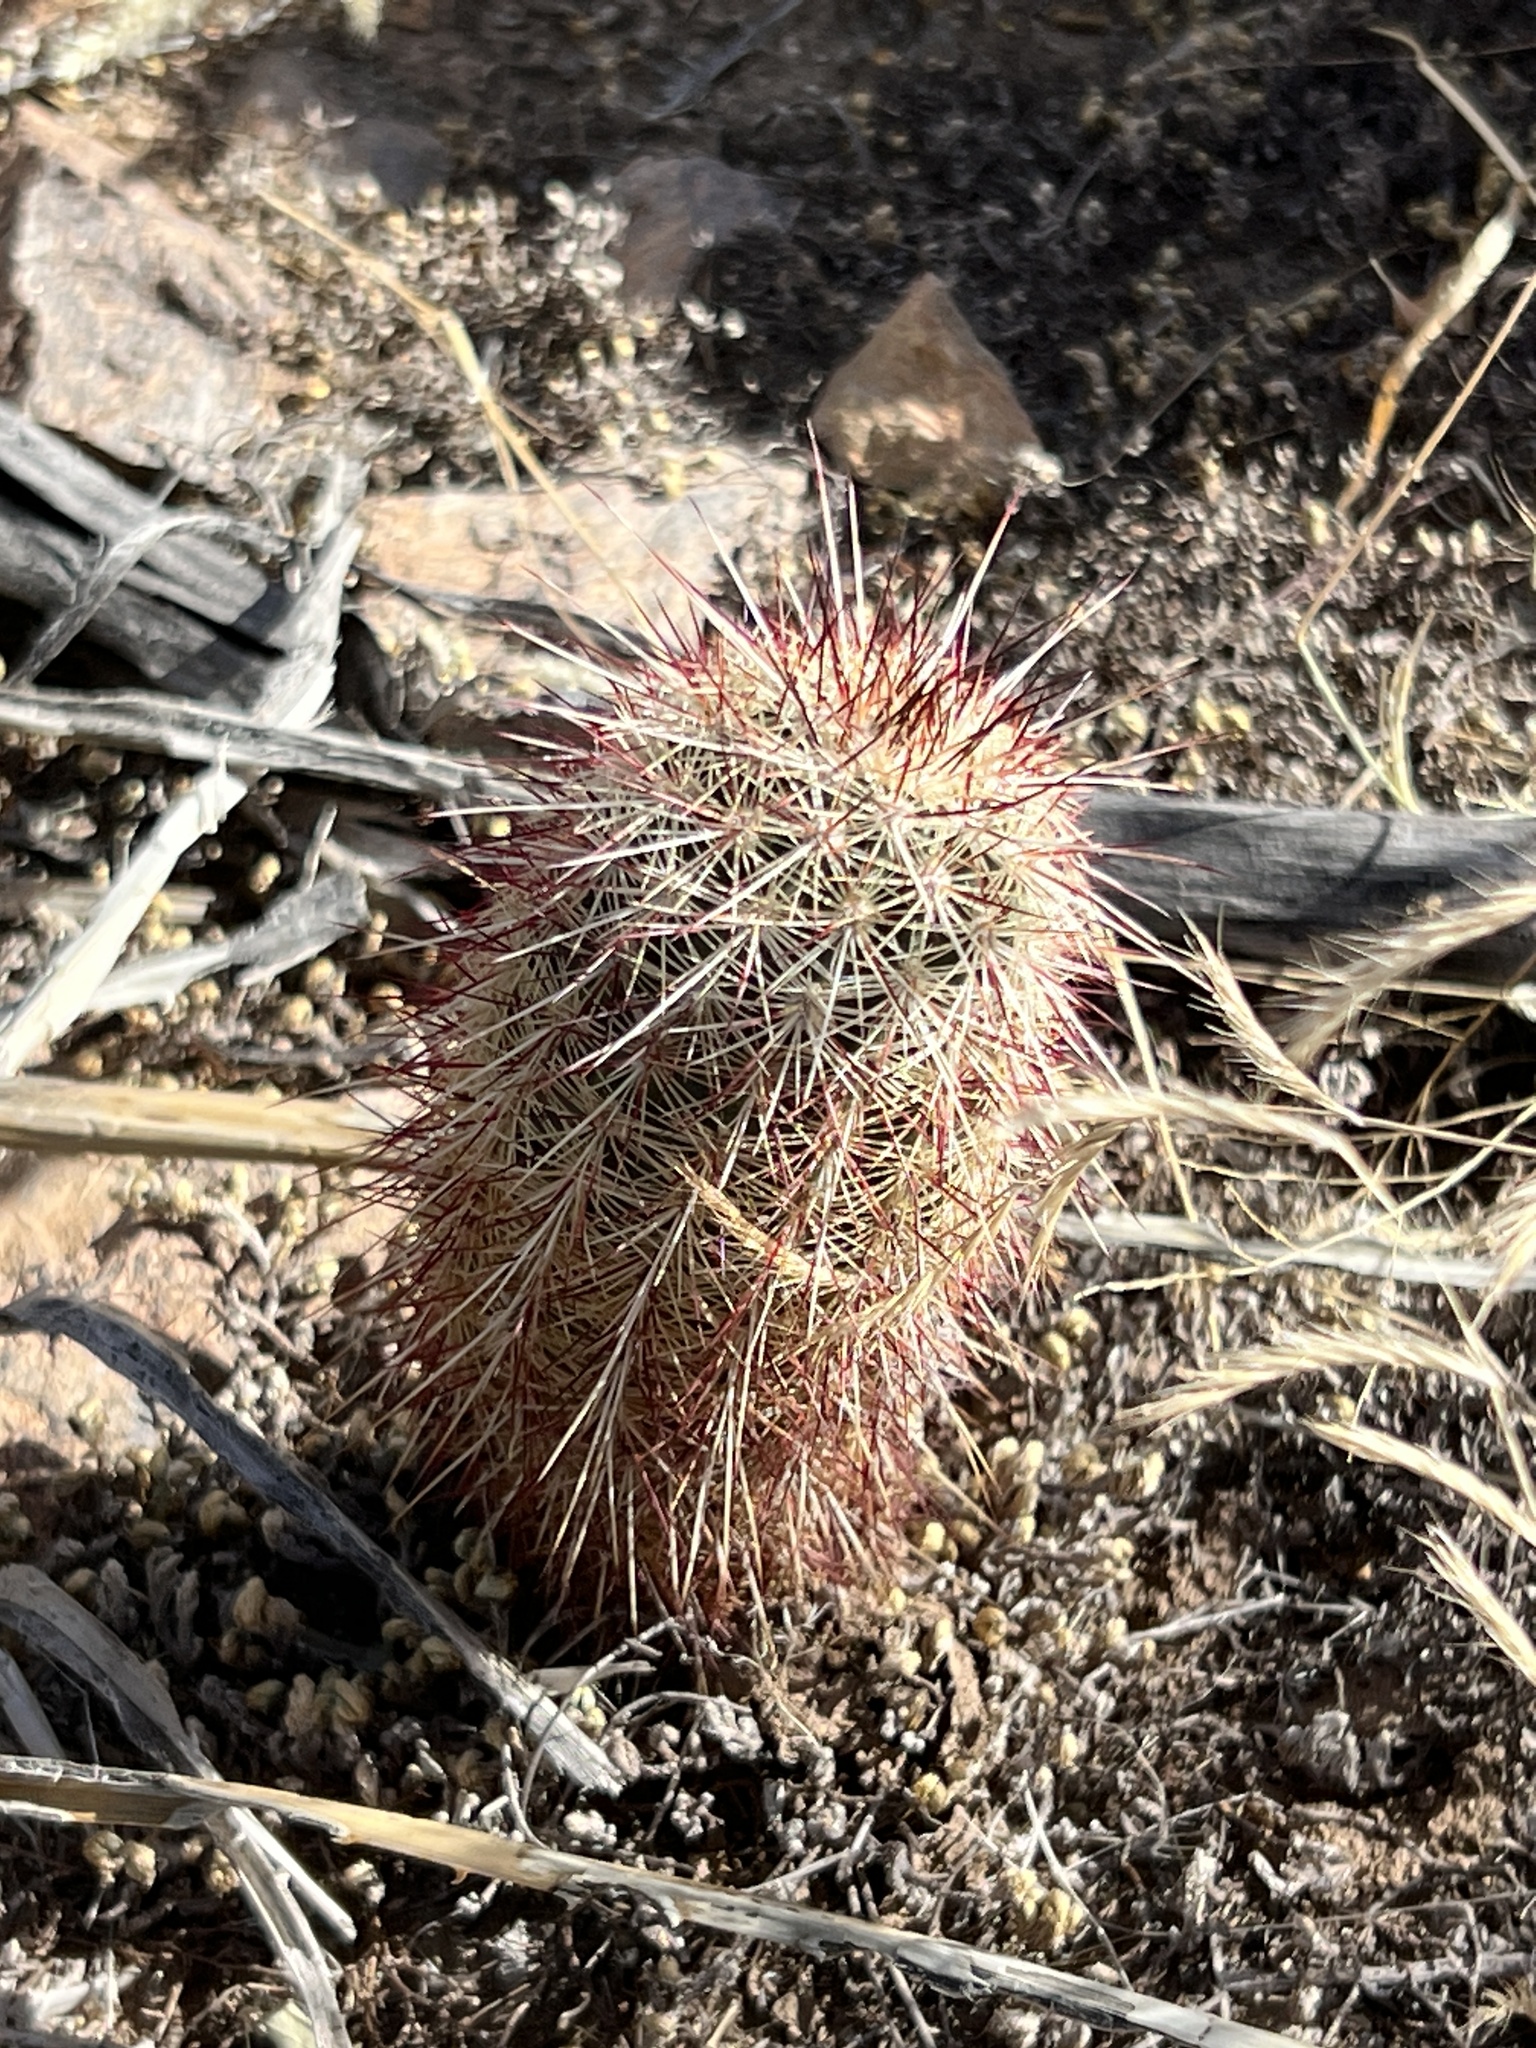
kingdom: Plantae
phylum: Tracheophyta
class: Magnoliopsida
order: Caryophyllales
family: Cactaceae
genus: Echinocereus
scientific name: Echinocereus viridiflorus
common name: Nylon hedgehog cactus
